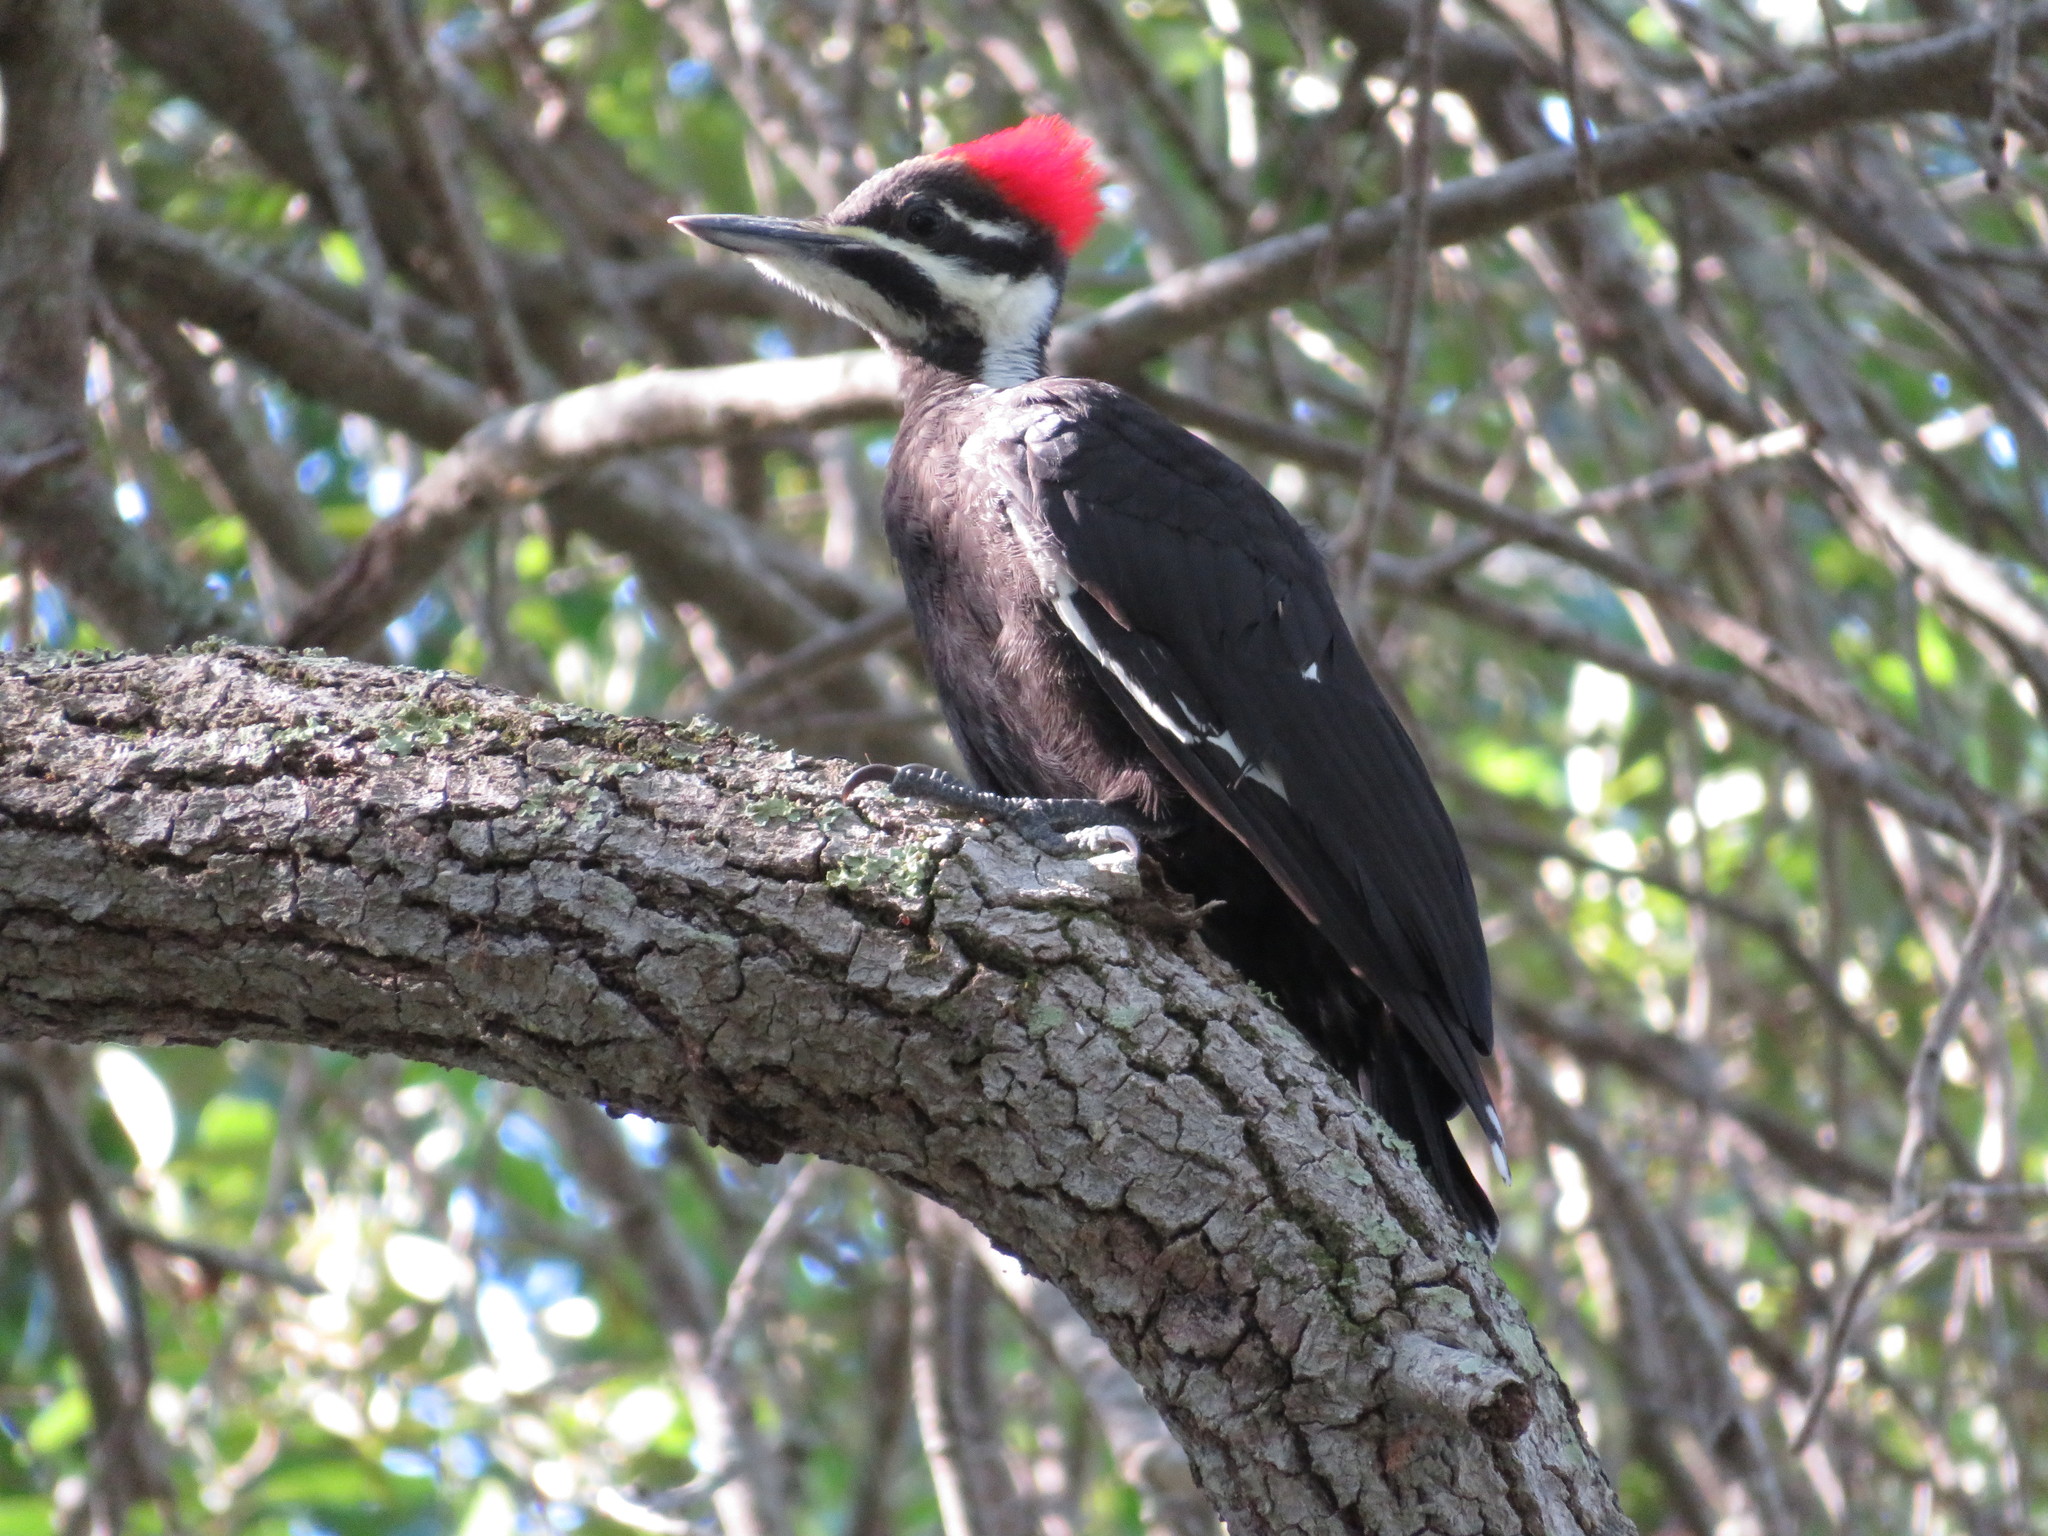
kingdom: Animalia
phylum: Chordata
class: Aves
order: Piciformes
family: Picidae
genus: Dryocopus
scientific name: Dryocopus pileatus
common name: Pileated woodpecker
